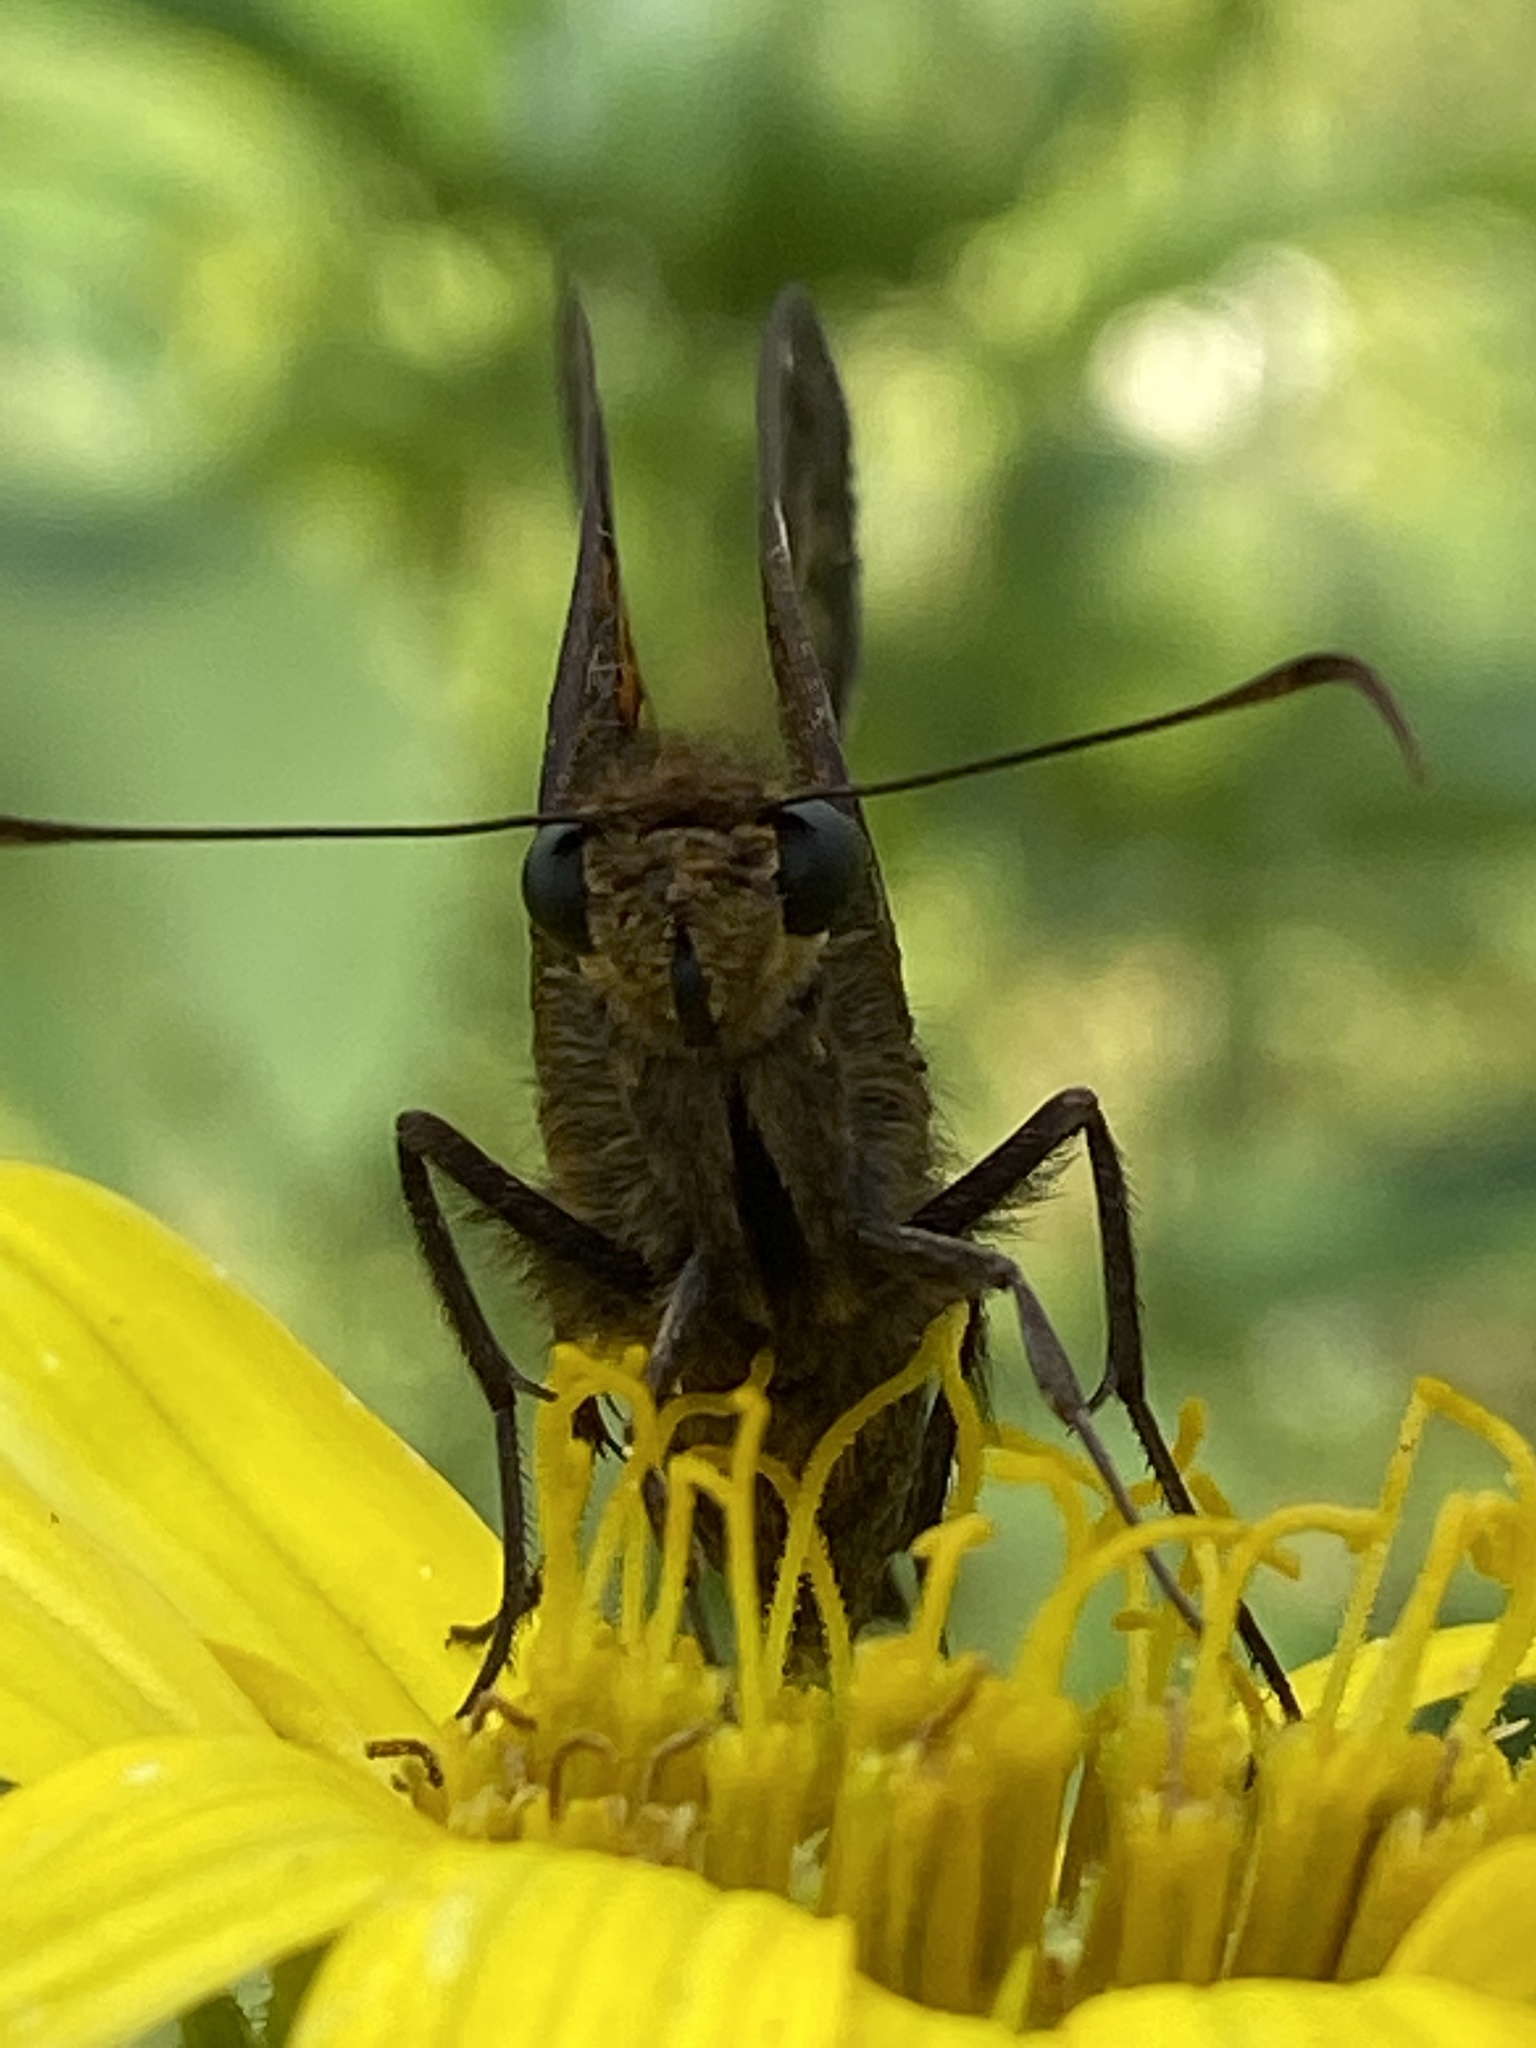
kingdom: Animalia
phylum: Arthropoda
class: Insecta
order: Lepidoptera
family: Hesperiidae
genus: Epargyreus
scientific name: Epargyreus clarus
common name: Silver-spotted skipper
